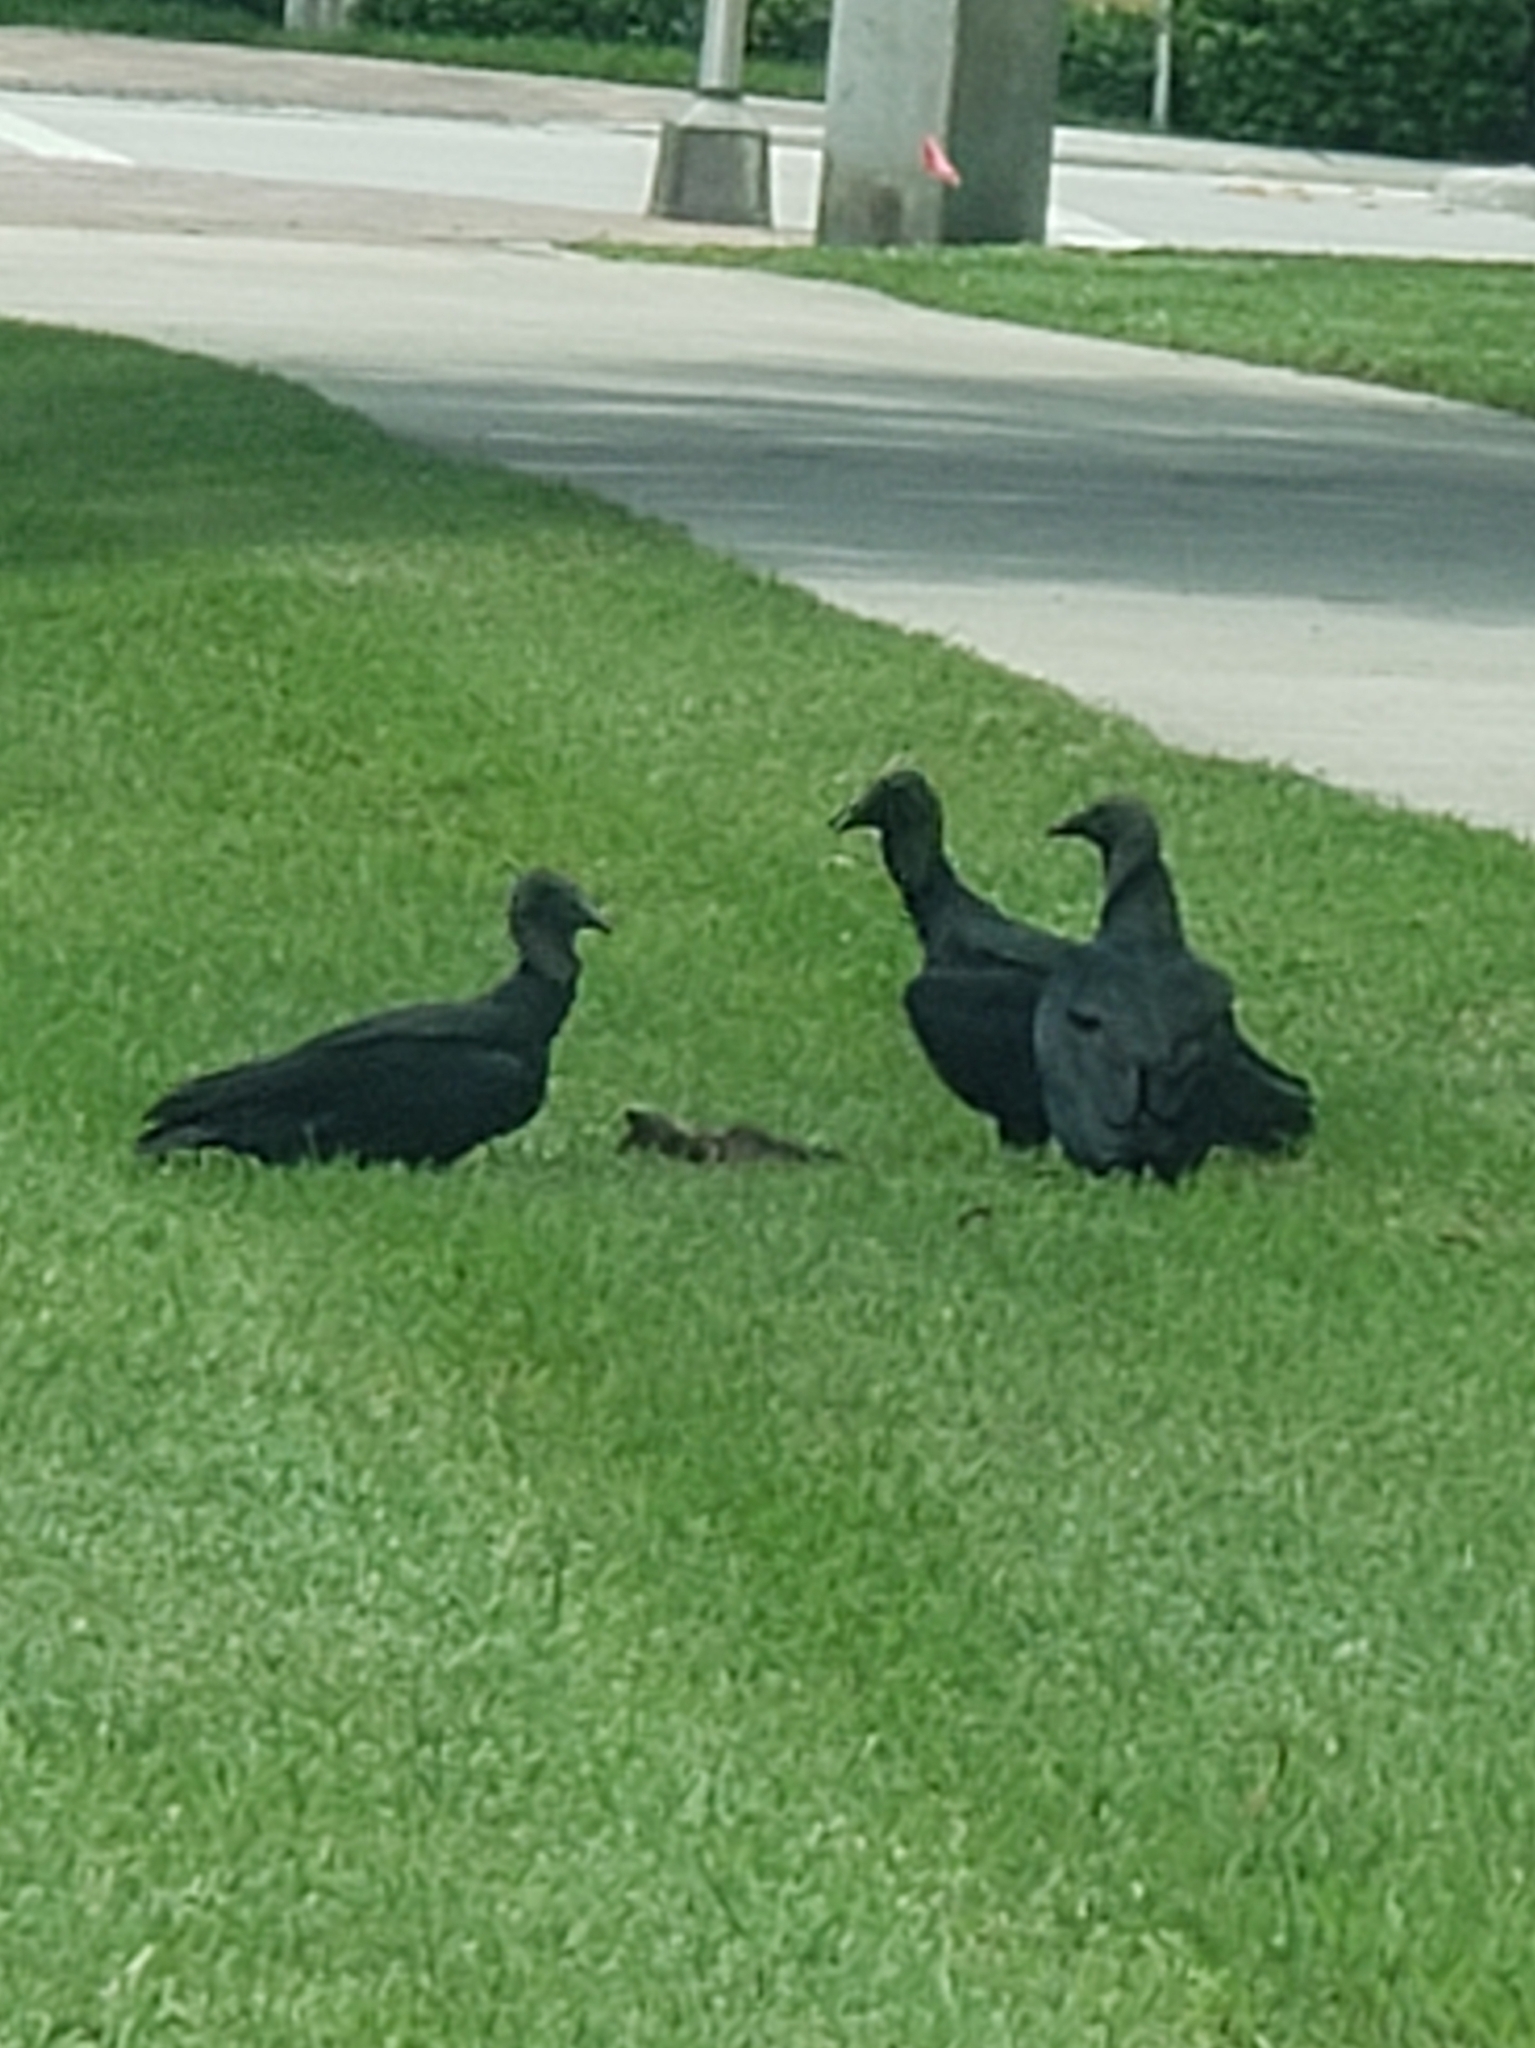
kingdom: Animalia
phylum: Chordata
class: Aves
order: Accipitriformes
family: Cathartidae
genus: Coragyps
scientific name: Coragyps atratus
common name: Black vulture
